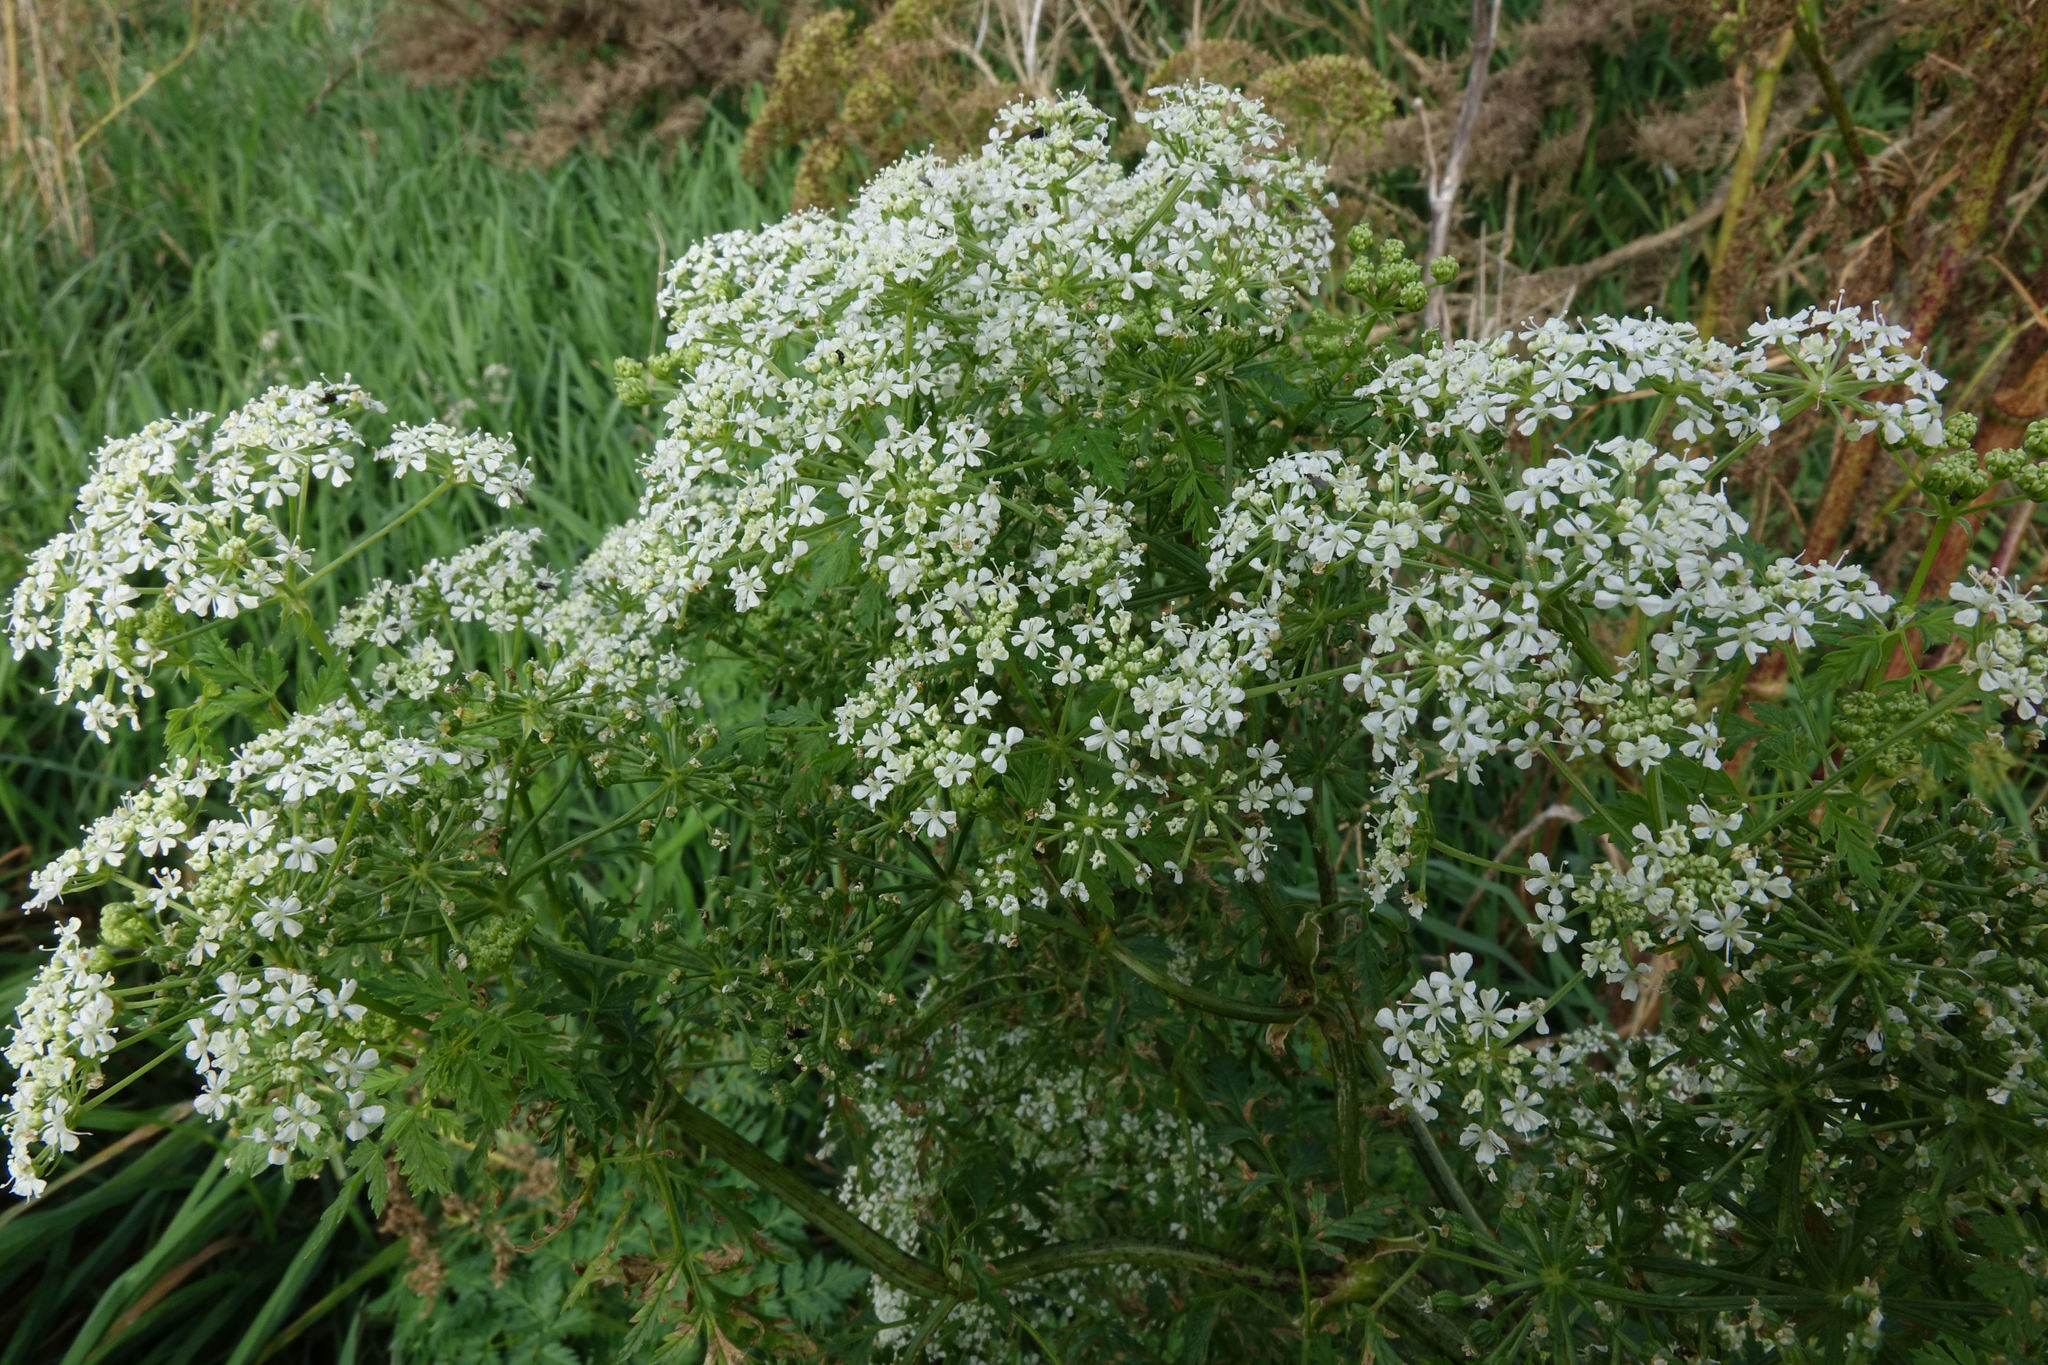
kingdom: Plantae
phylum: Tracheophyta
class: Magnoliopsida
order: Apiales
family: Apiaceae
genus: Conium
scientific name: Conium maculatum
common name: Hemlock
